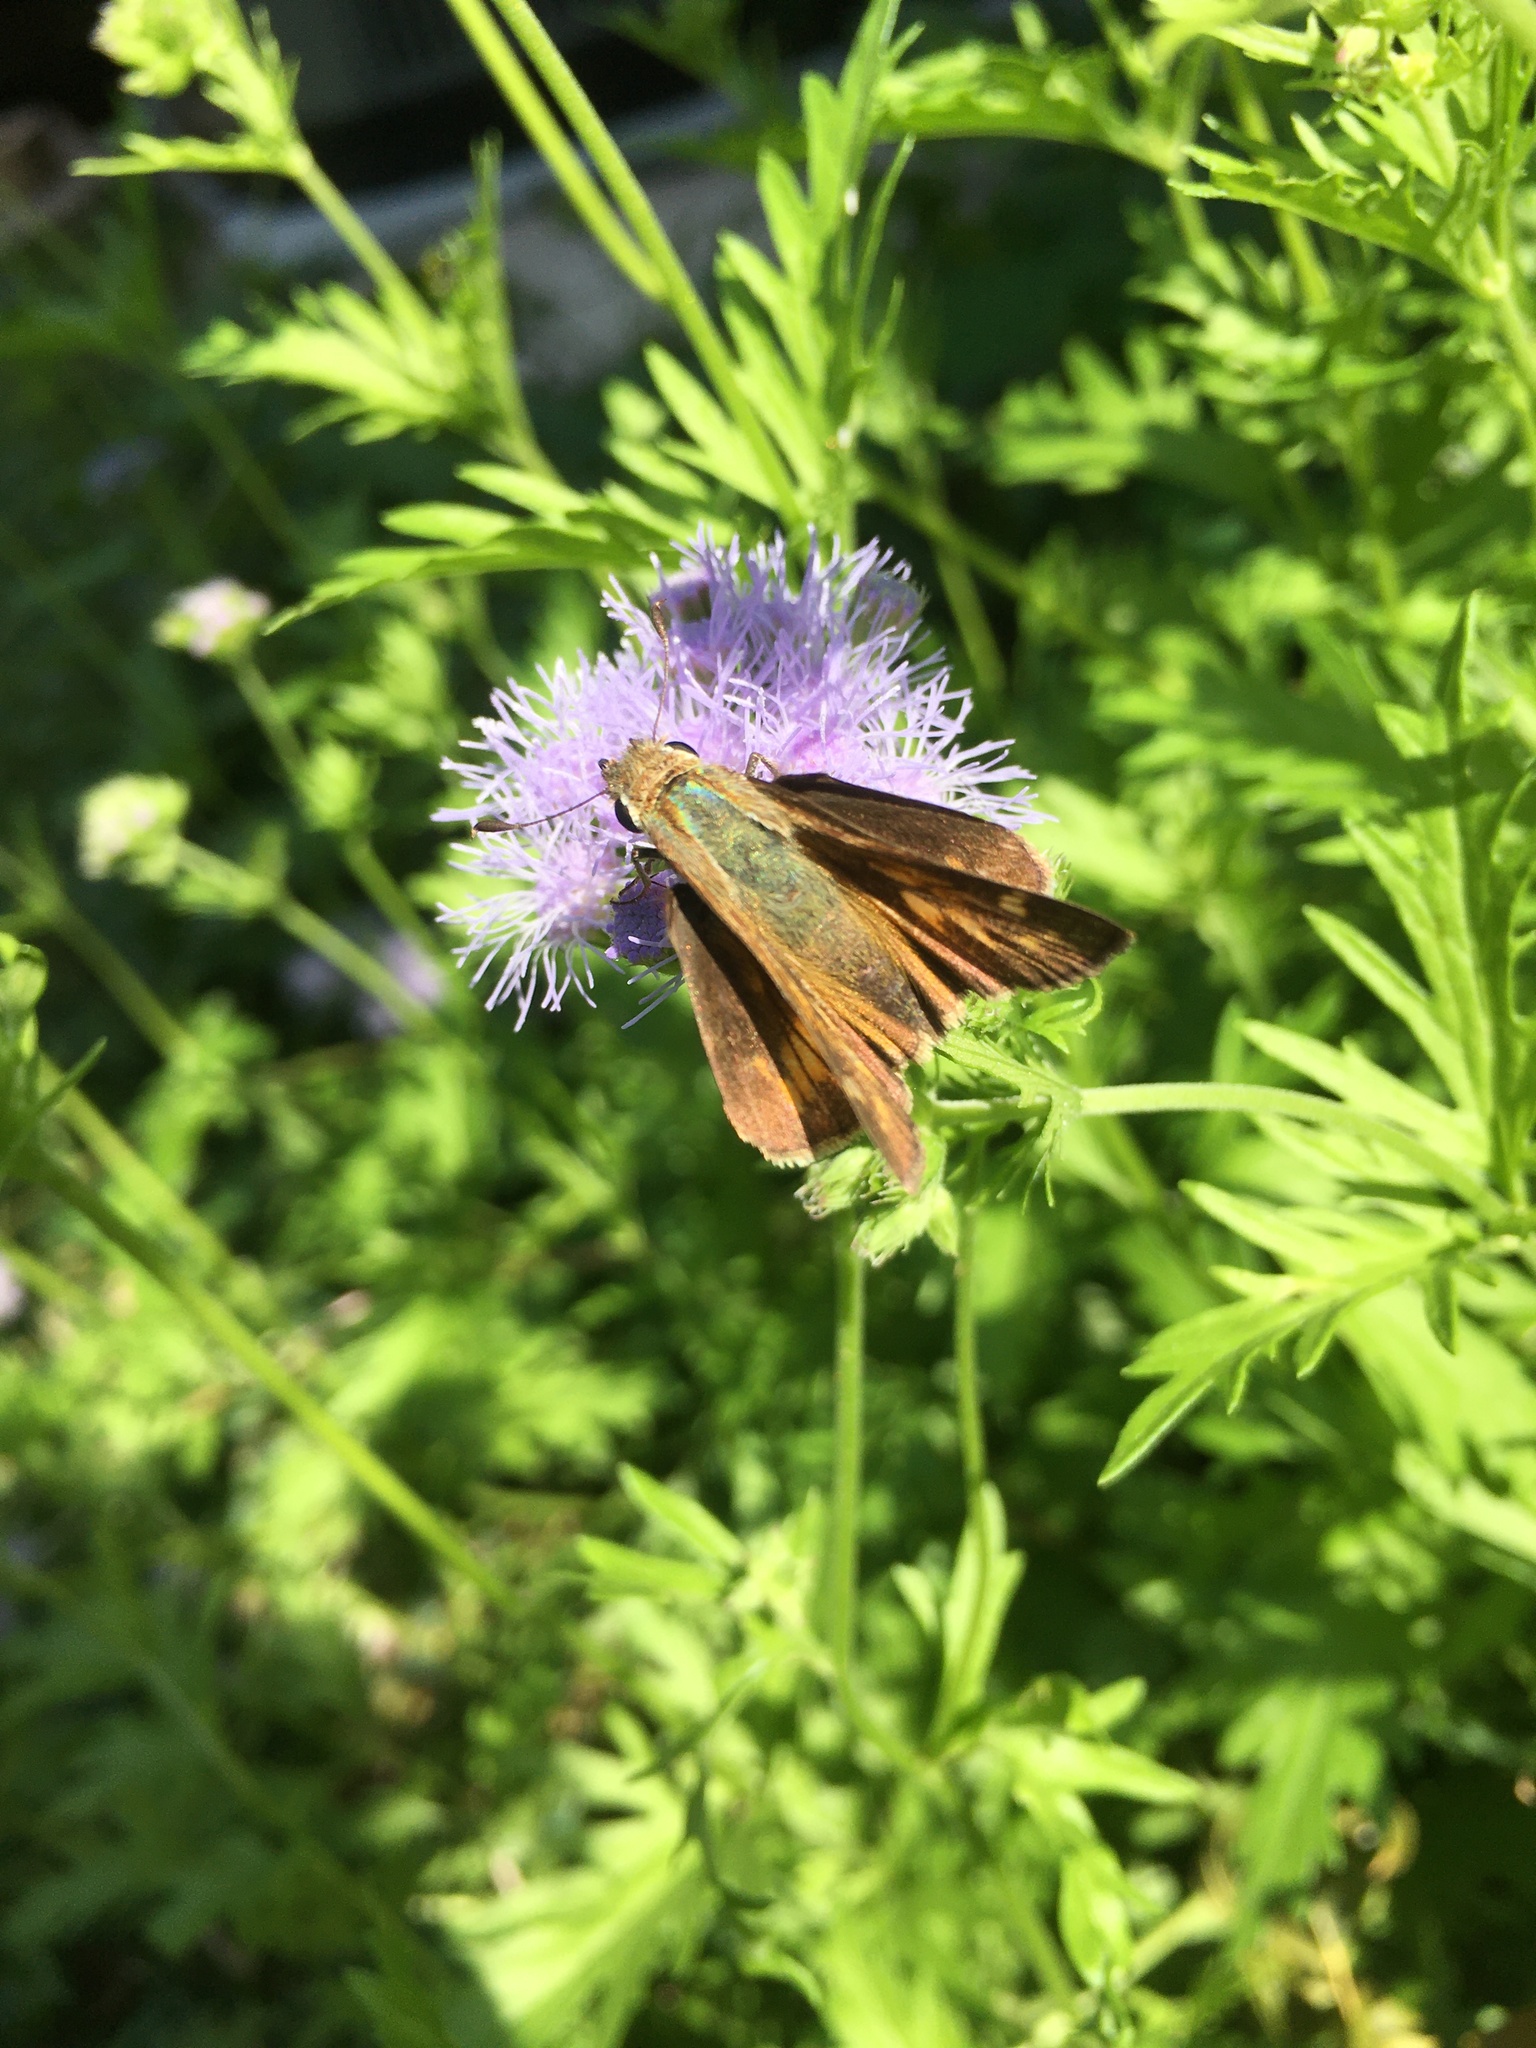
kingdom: Animalia
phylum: Arthropoda
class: Insecta
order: Lepidoptera
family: Hesperiidae
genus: Atalopedes
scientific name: Atalopedes
